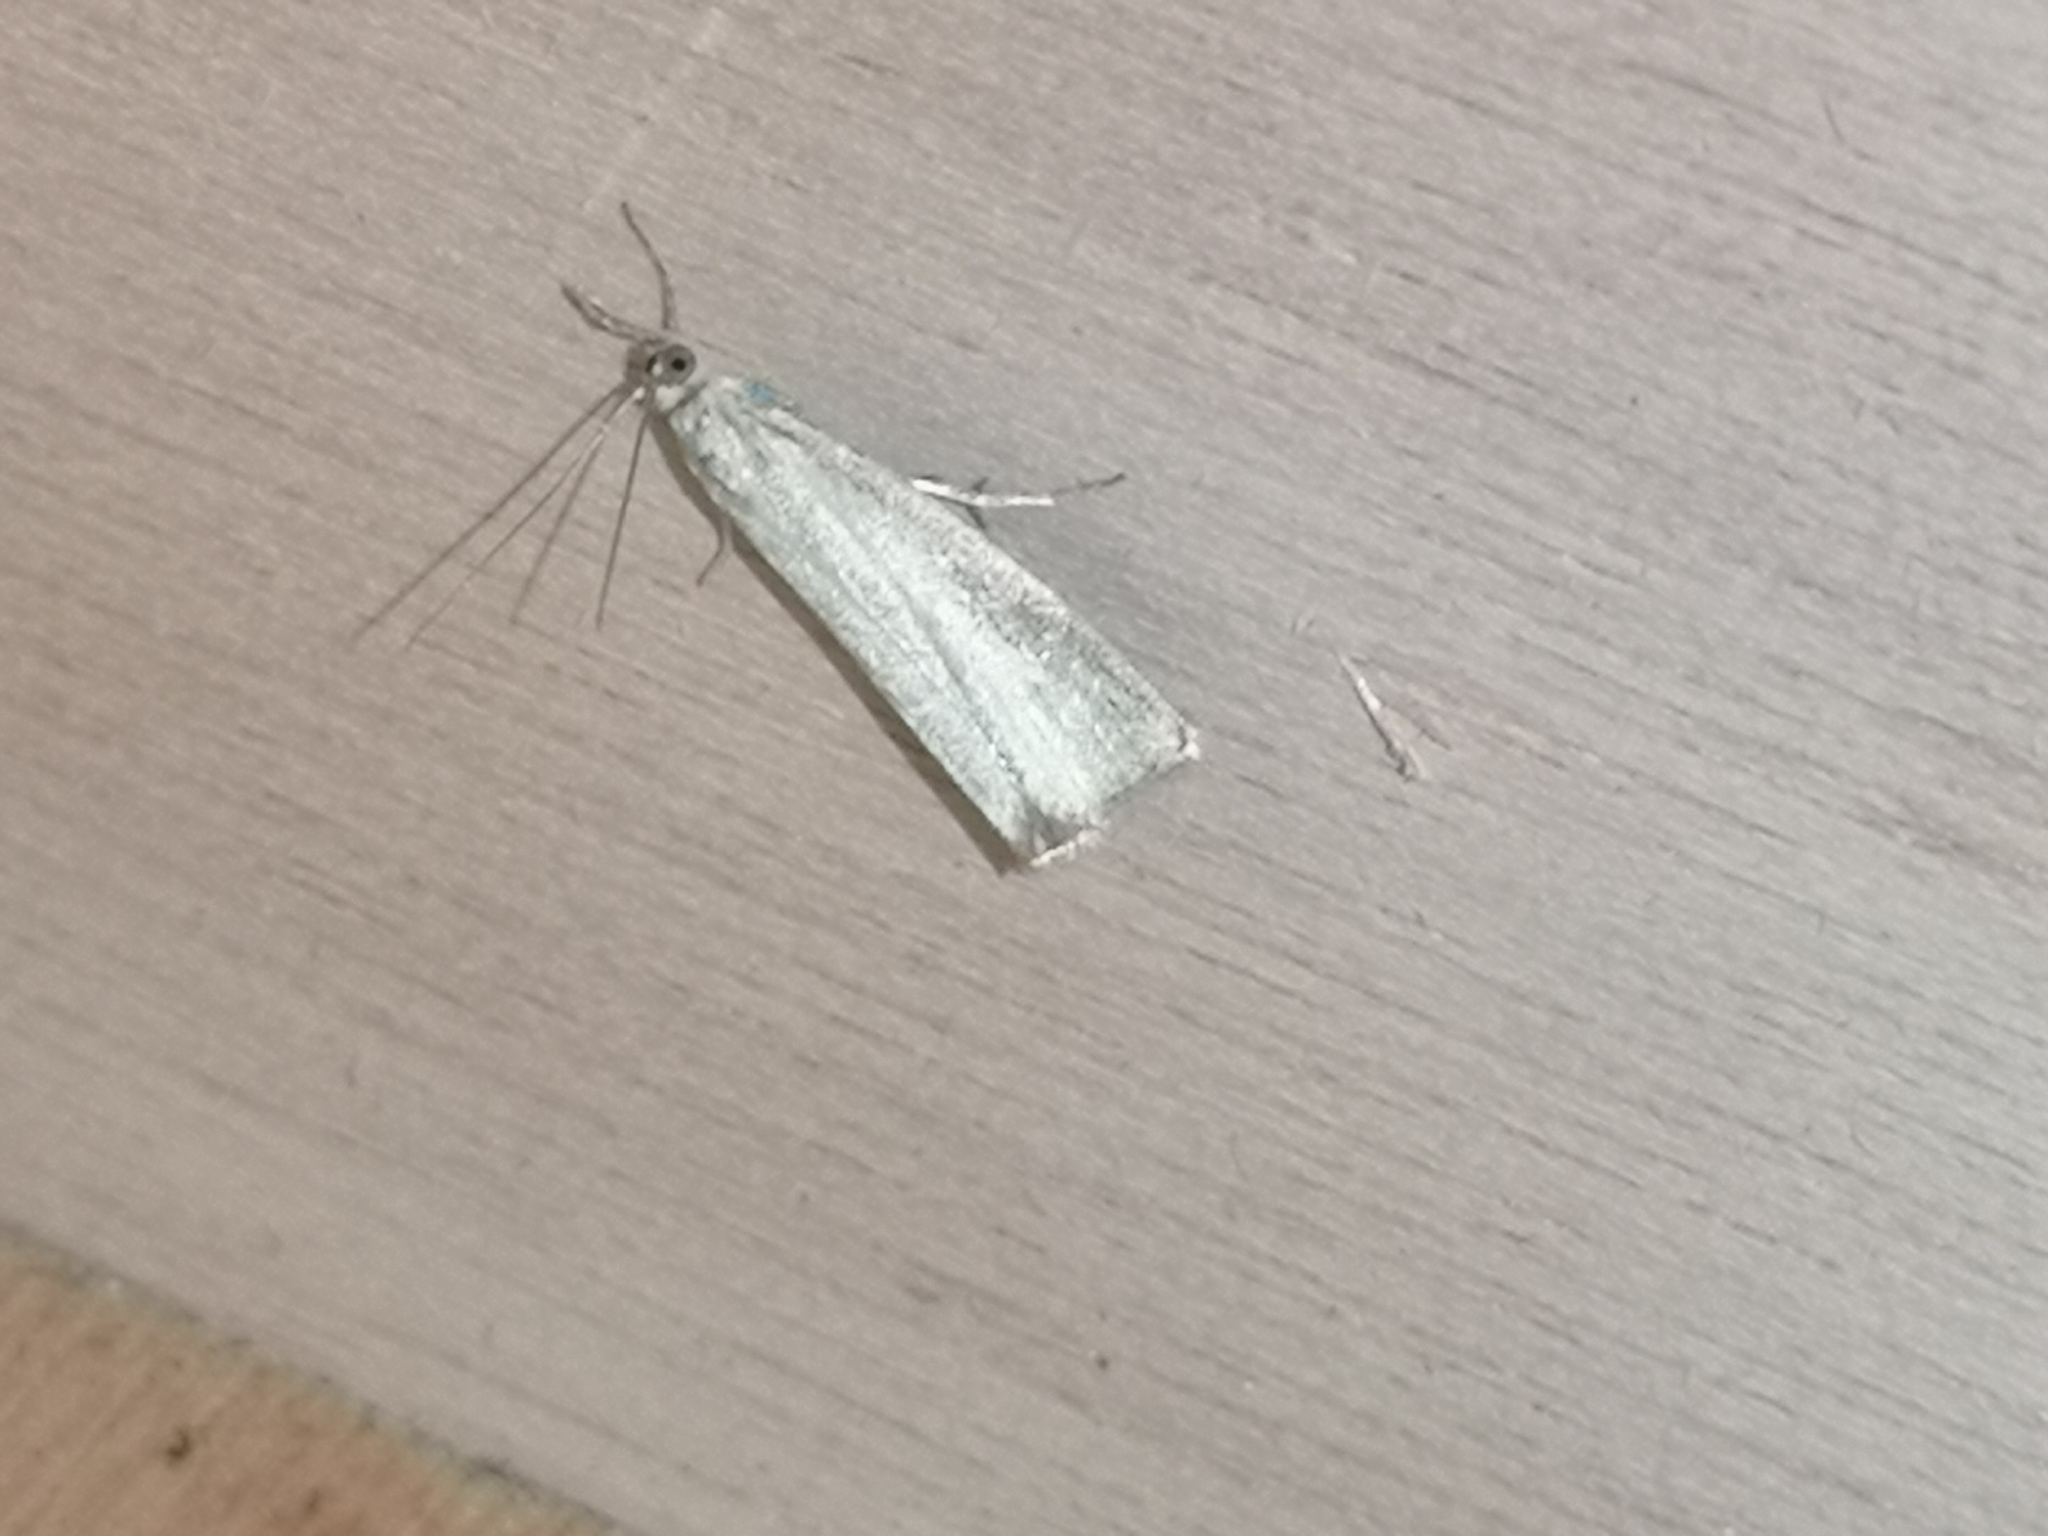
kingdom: Animalia
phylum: Arthropoda
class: Insecta
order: Lepidoptera
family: Crambidae
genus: Crambus
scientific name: Crambus perlellus
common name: Yellow satin veneer
